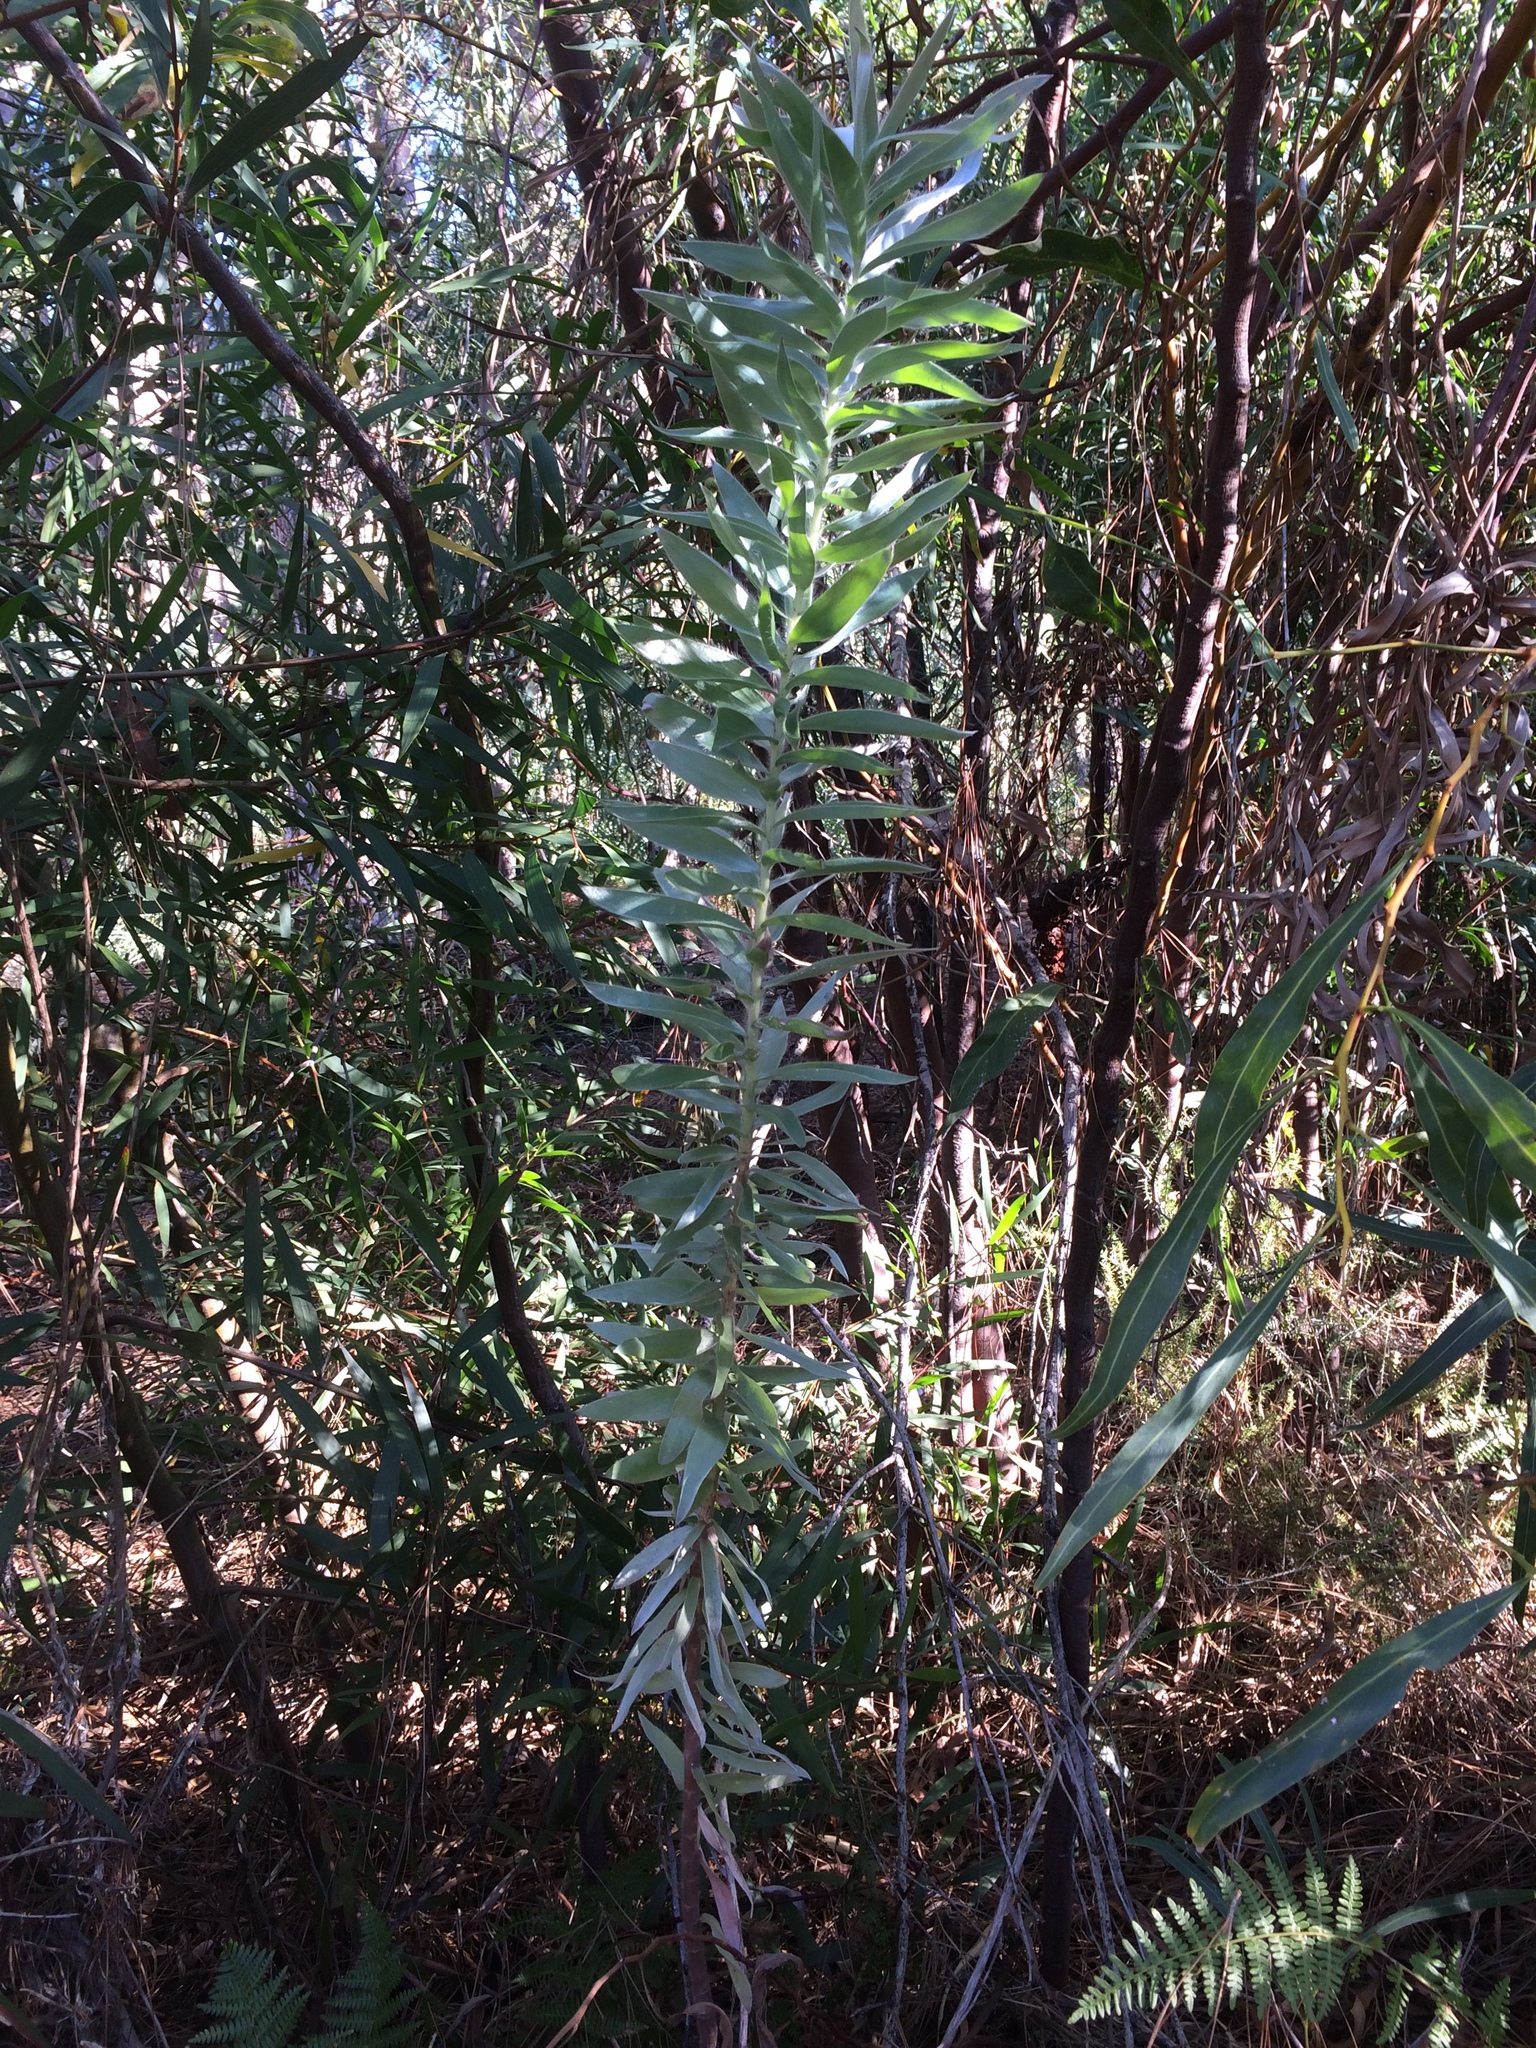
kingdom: Plantae
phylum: Tracheophyta
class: Magnoliopsida
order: Proteales
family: Proteaceae
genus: Leucadendron
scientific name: Leucadendron argenteum
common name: Cape silver tree
